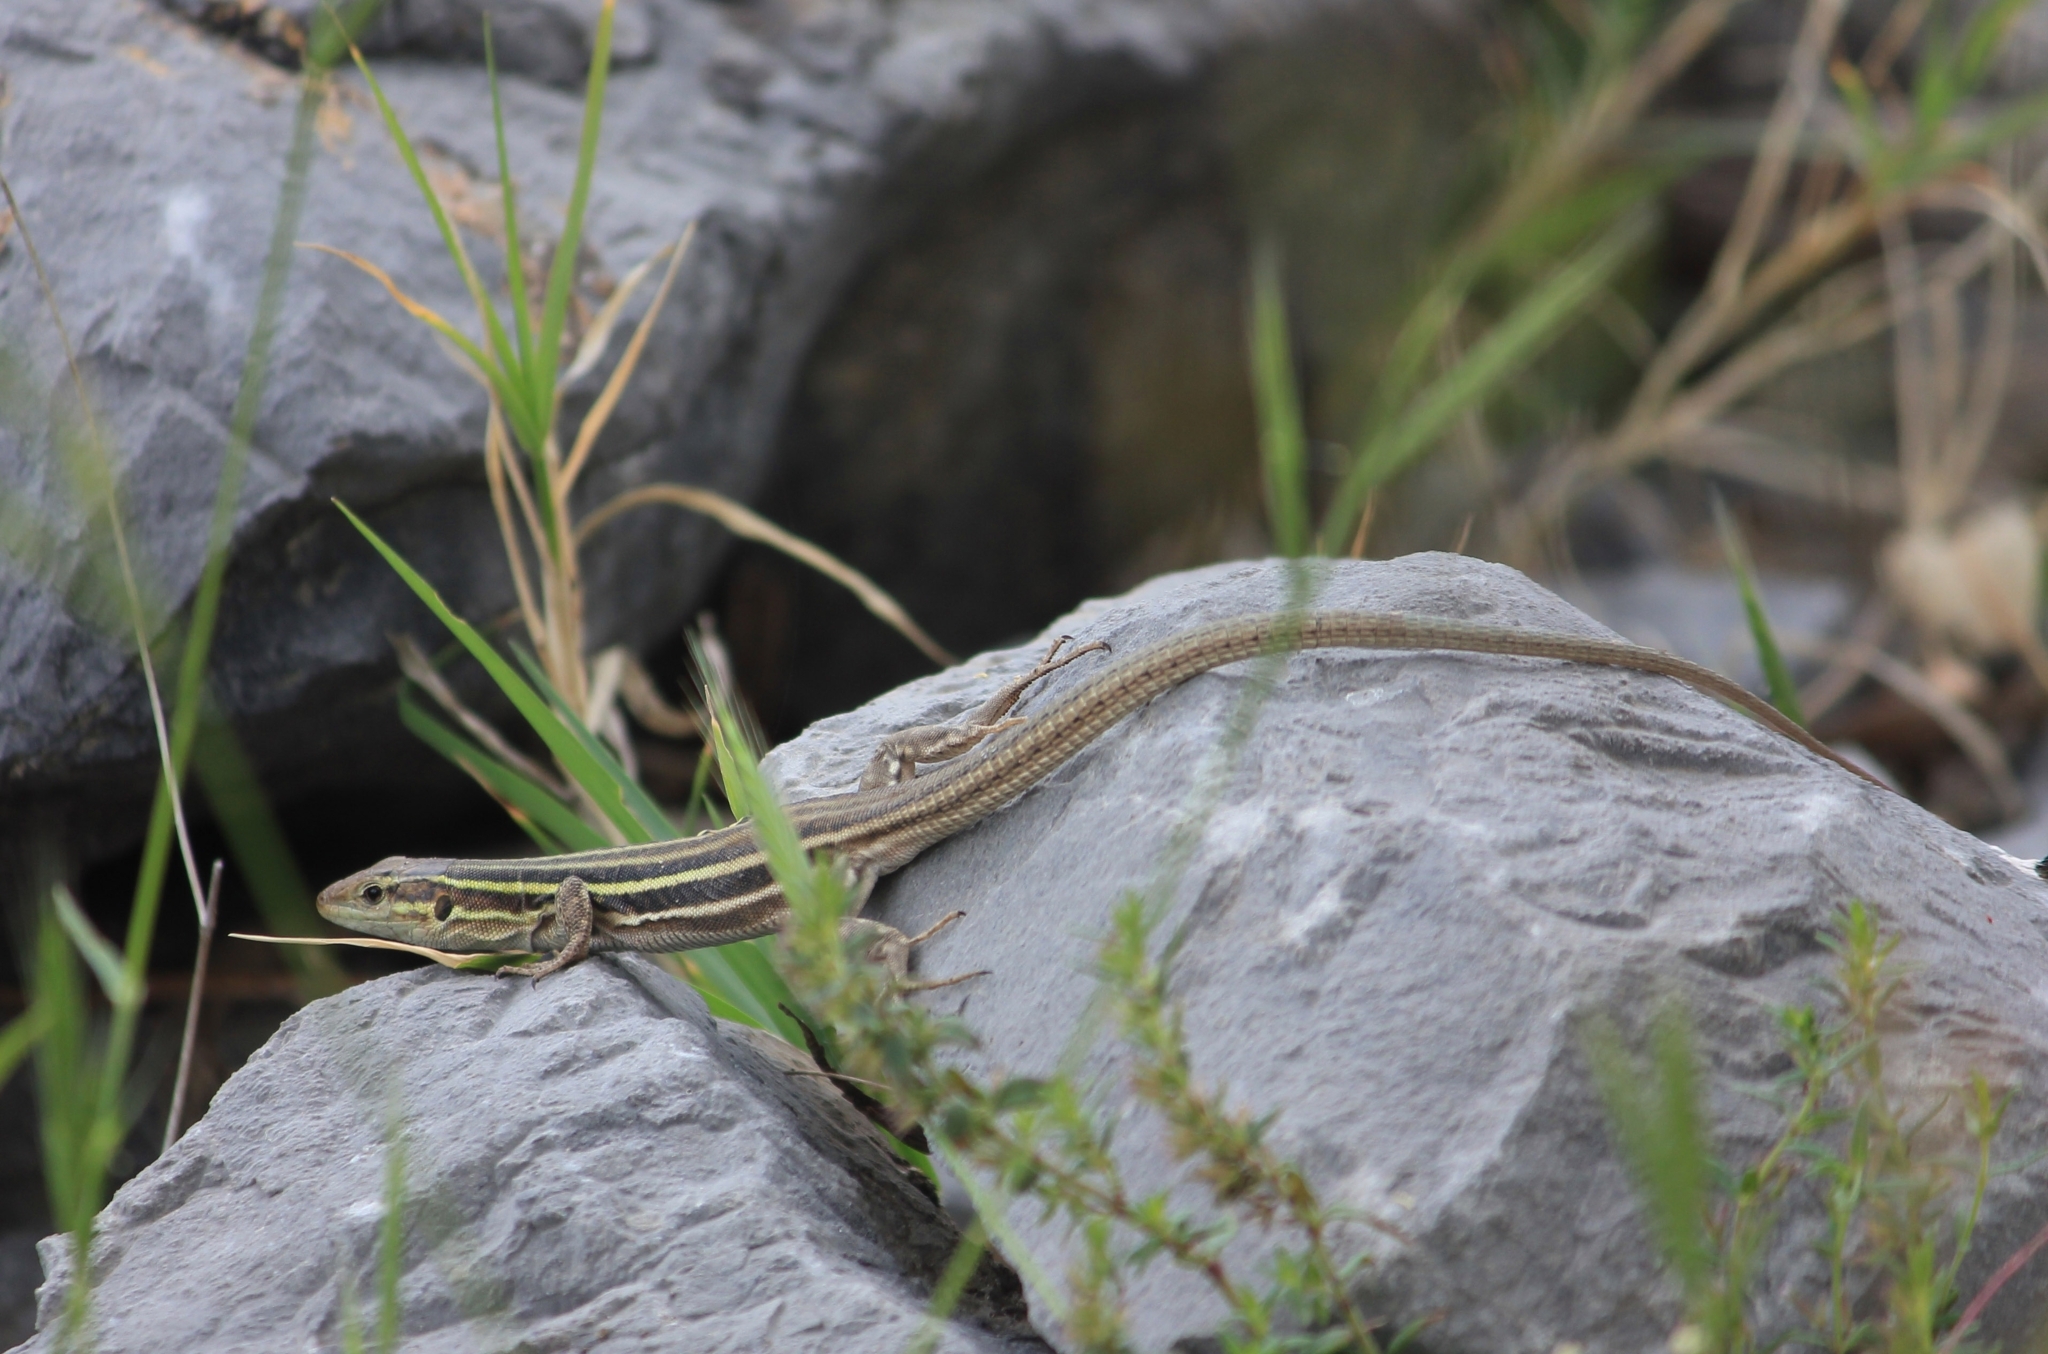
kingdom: Animalia
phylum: Chordata
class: Squamata
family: Lacertidae
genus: Podarcis
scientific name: Podarcis peloponnesiacus
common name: Peloponnese wall lizard
